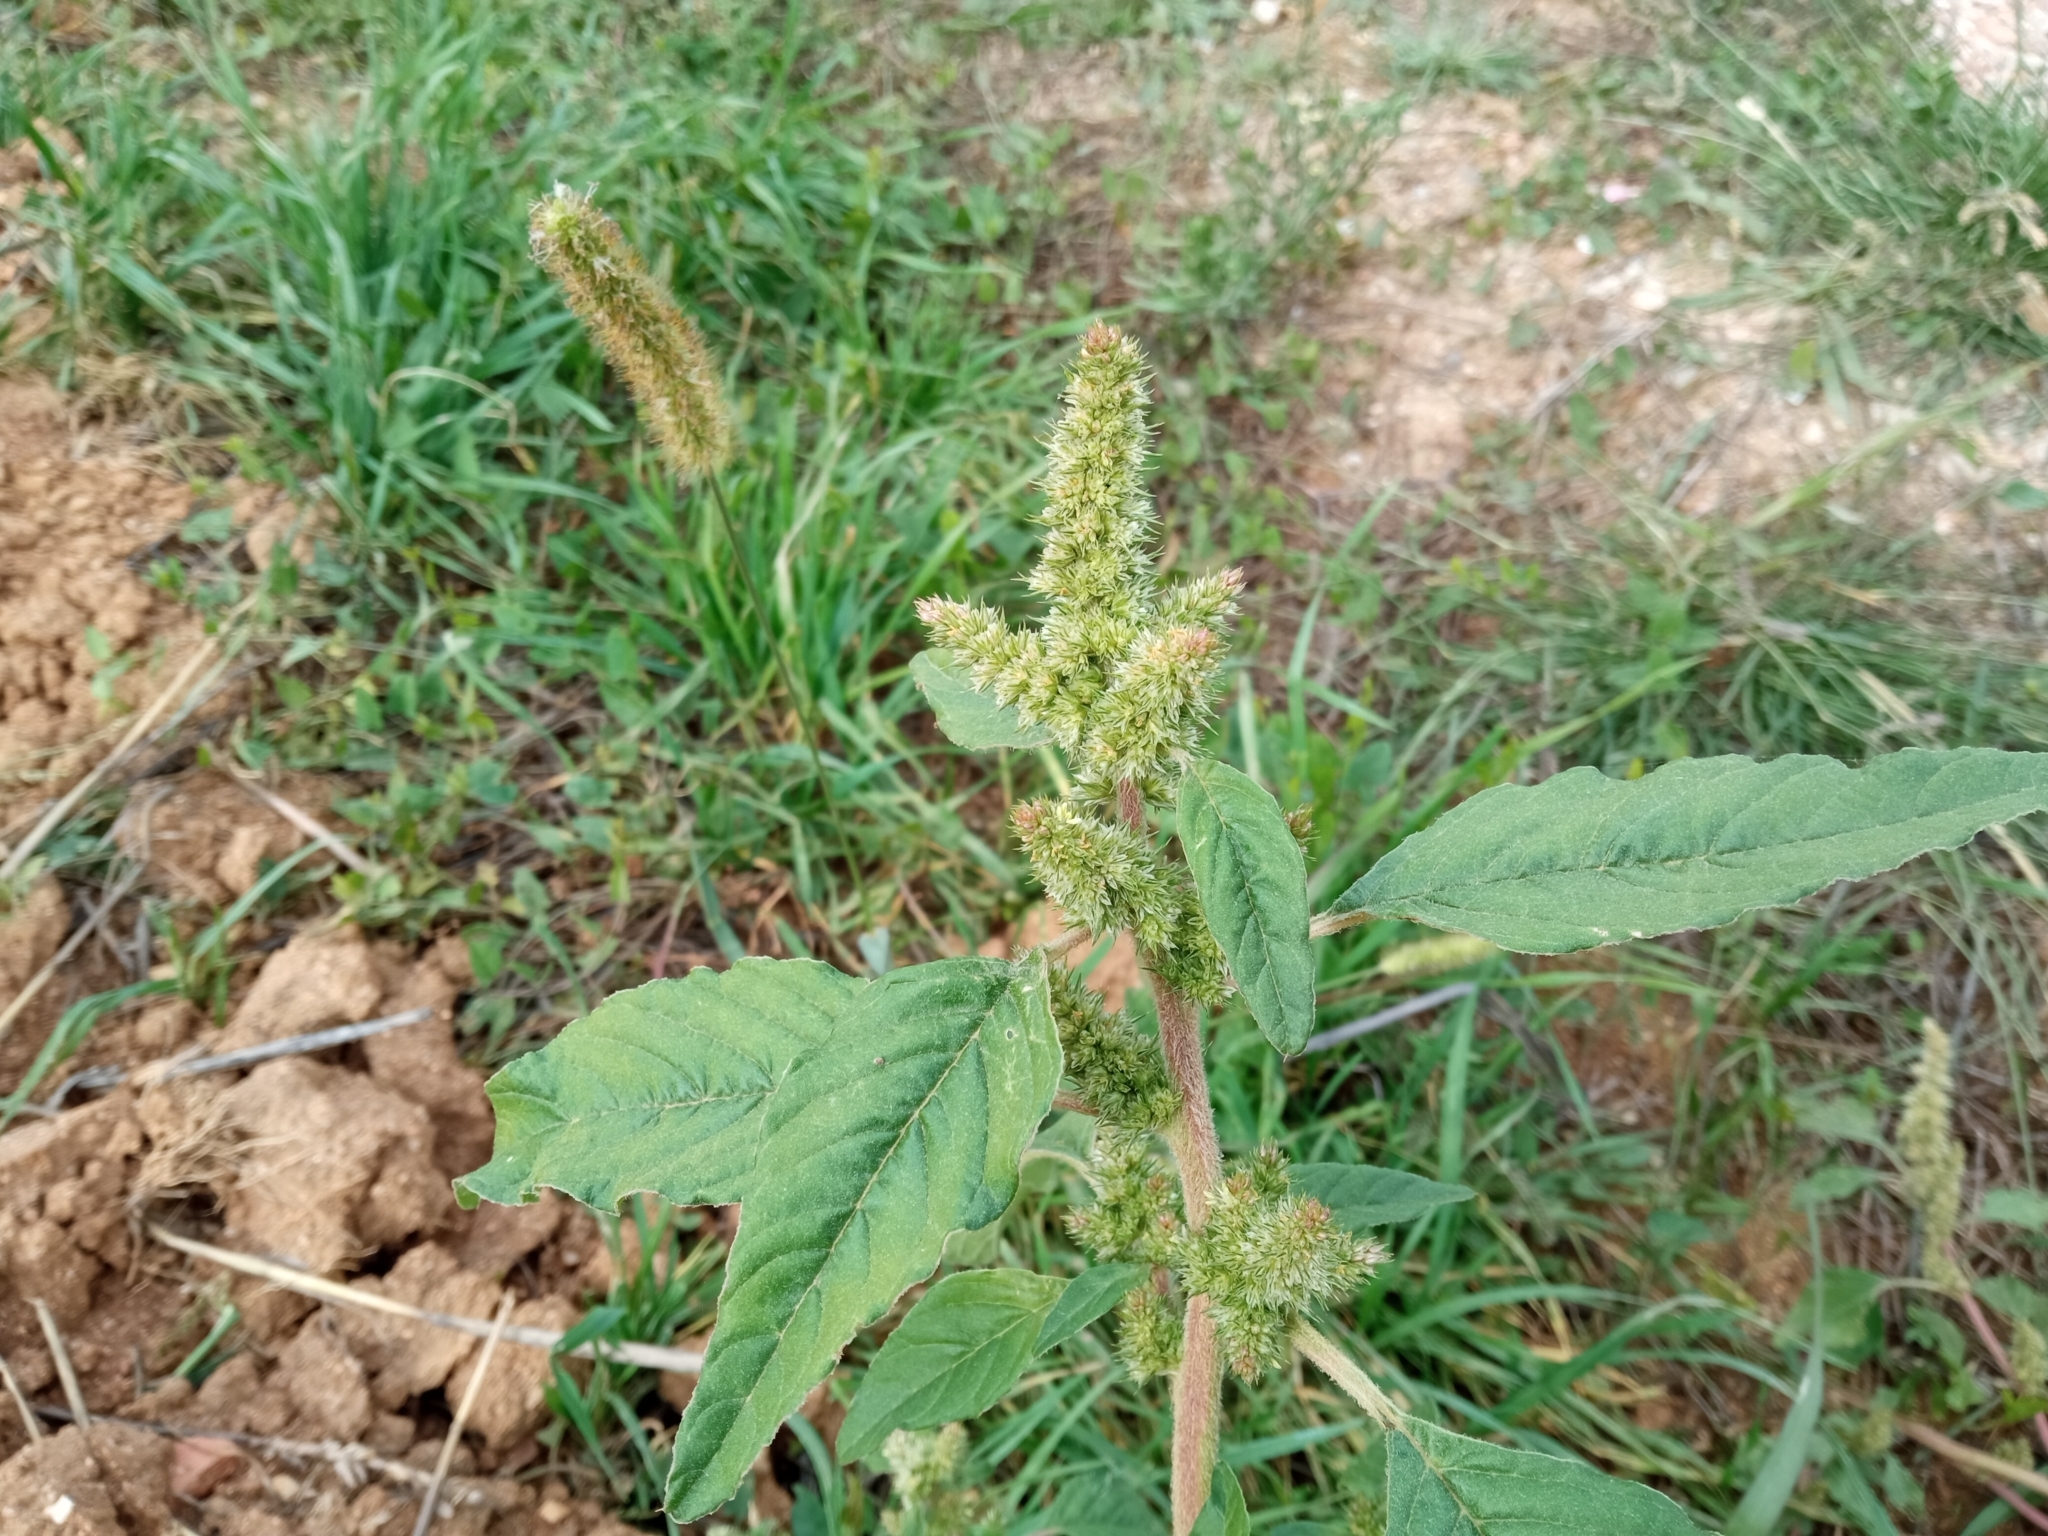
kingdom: Plantae
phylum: Tracheophyta
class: Magnoliopsida
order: Caryophyllales
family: Amaranthaceae
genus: Amaranthus
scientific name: Amaranthus retroflexus
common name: Redroot amaranth
